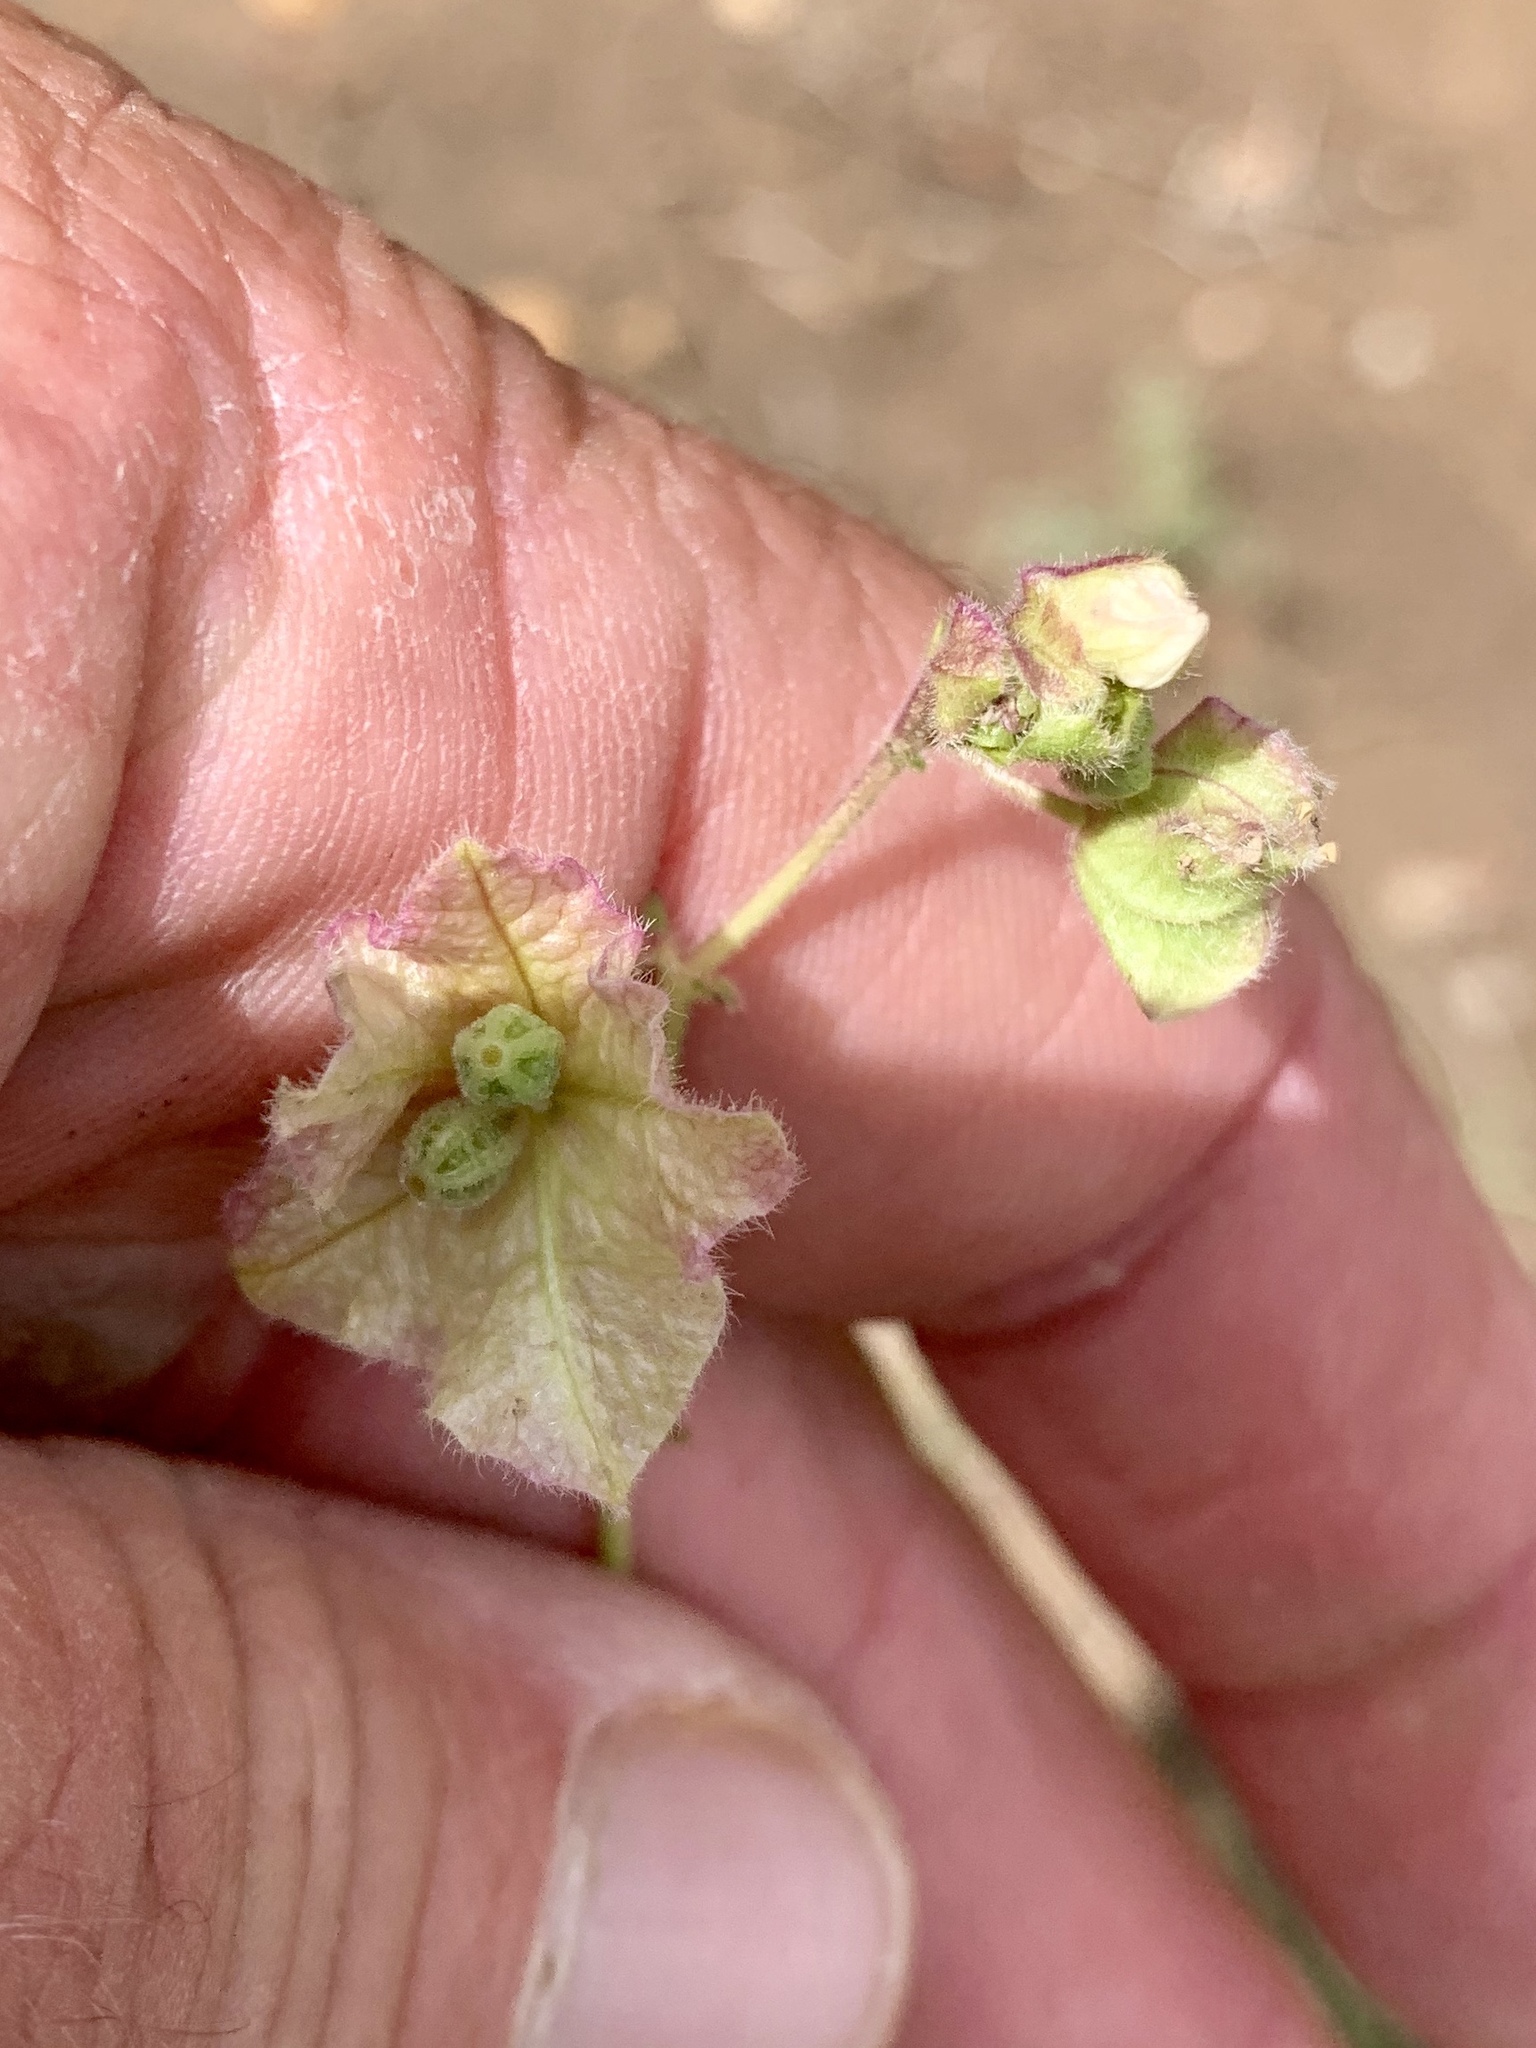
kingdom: Plantae
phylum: Tracheophyta
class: Magnoliopsida
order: Caryophyllales
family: Nyctaginaceae
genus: Mirabilis
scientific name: Mirabilis linearis
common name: Linear-leaved four-o'clock
